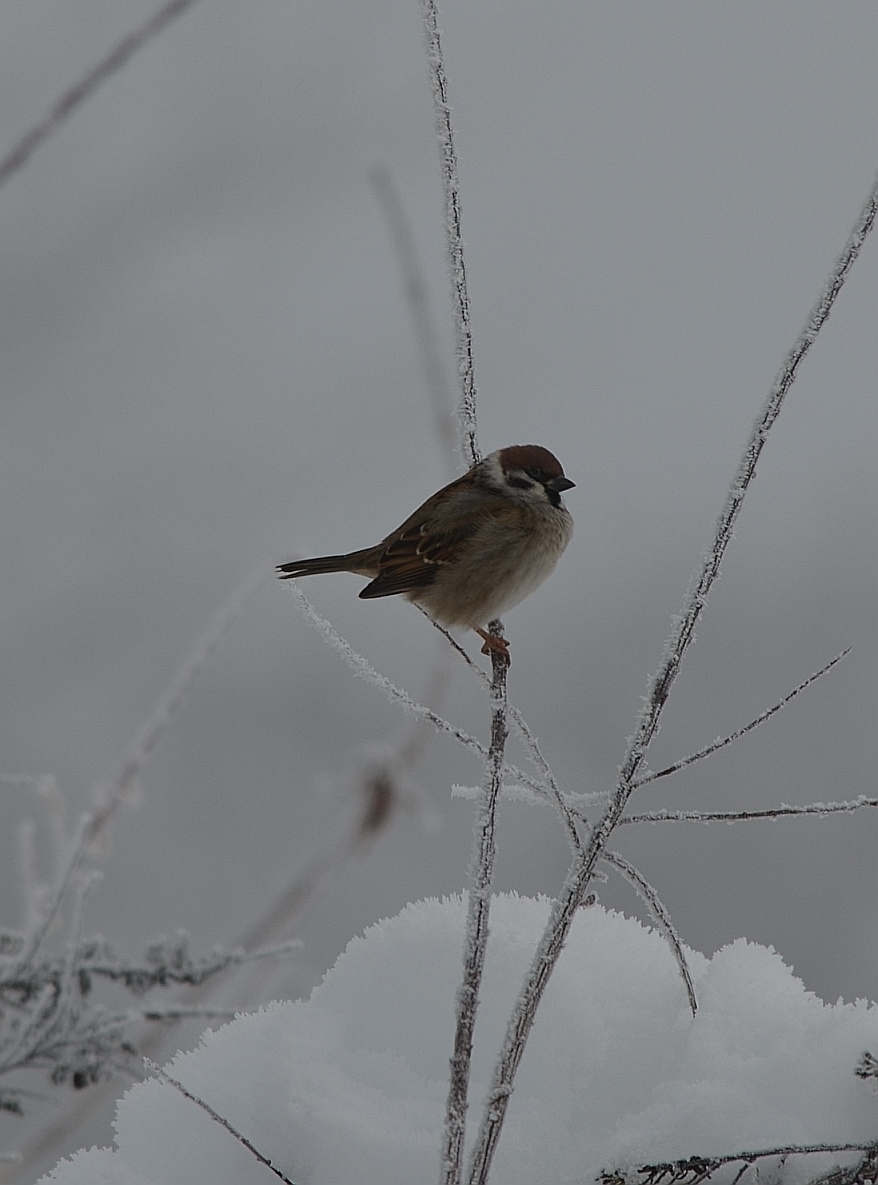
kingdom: Animalia
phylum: Chordata
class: Aves
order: Passeriformes
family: Passeridae
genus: Passer
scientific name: Passer montanus
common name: Eurasian tree sparrow
